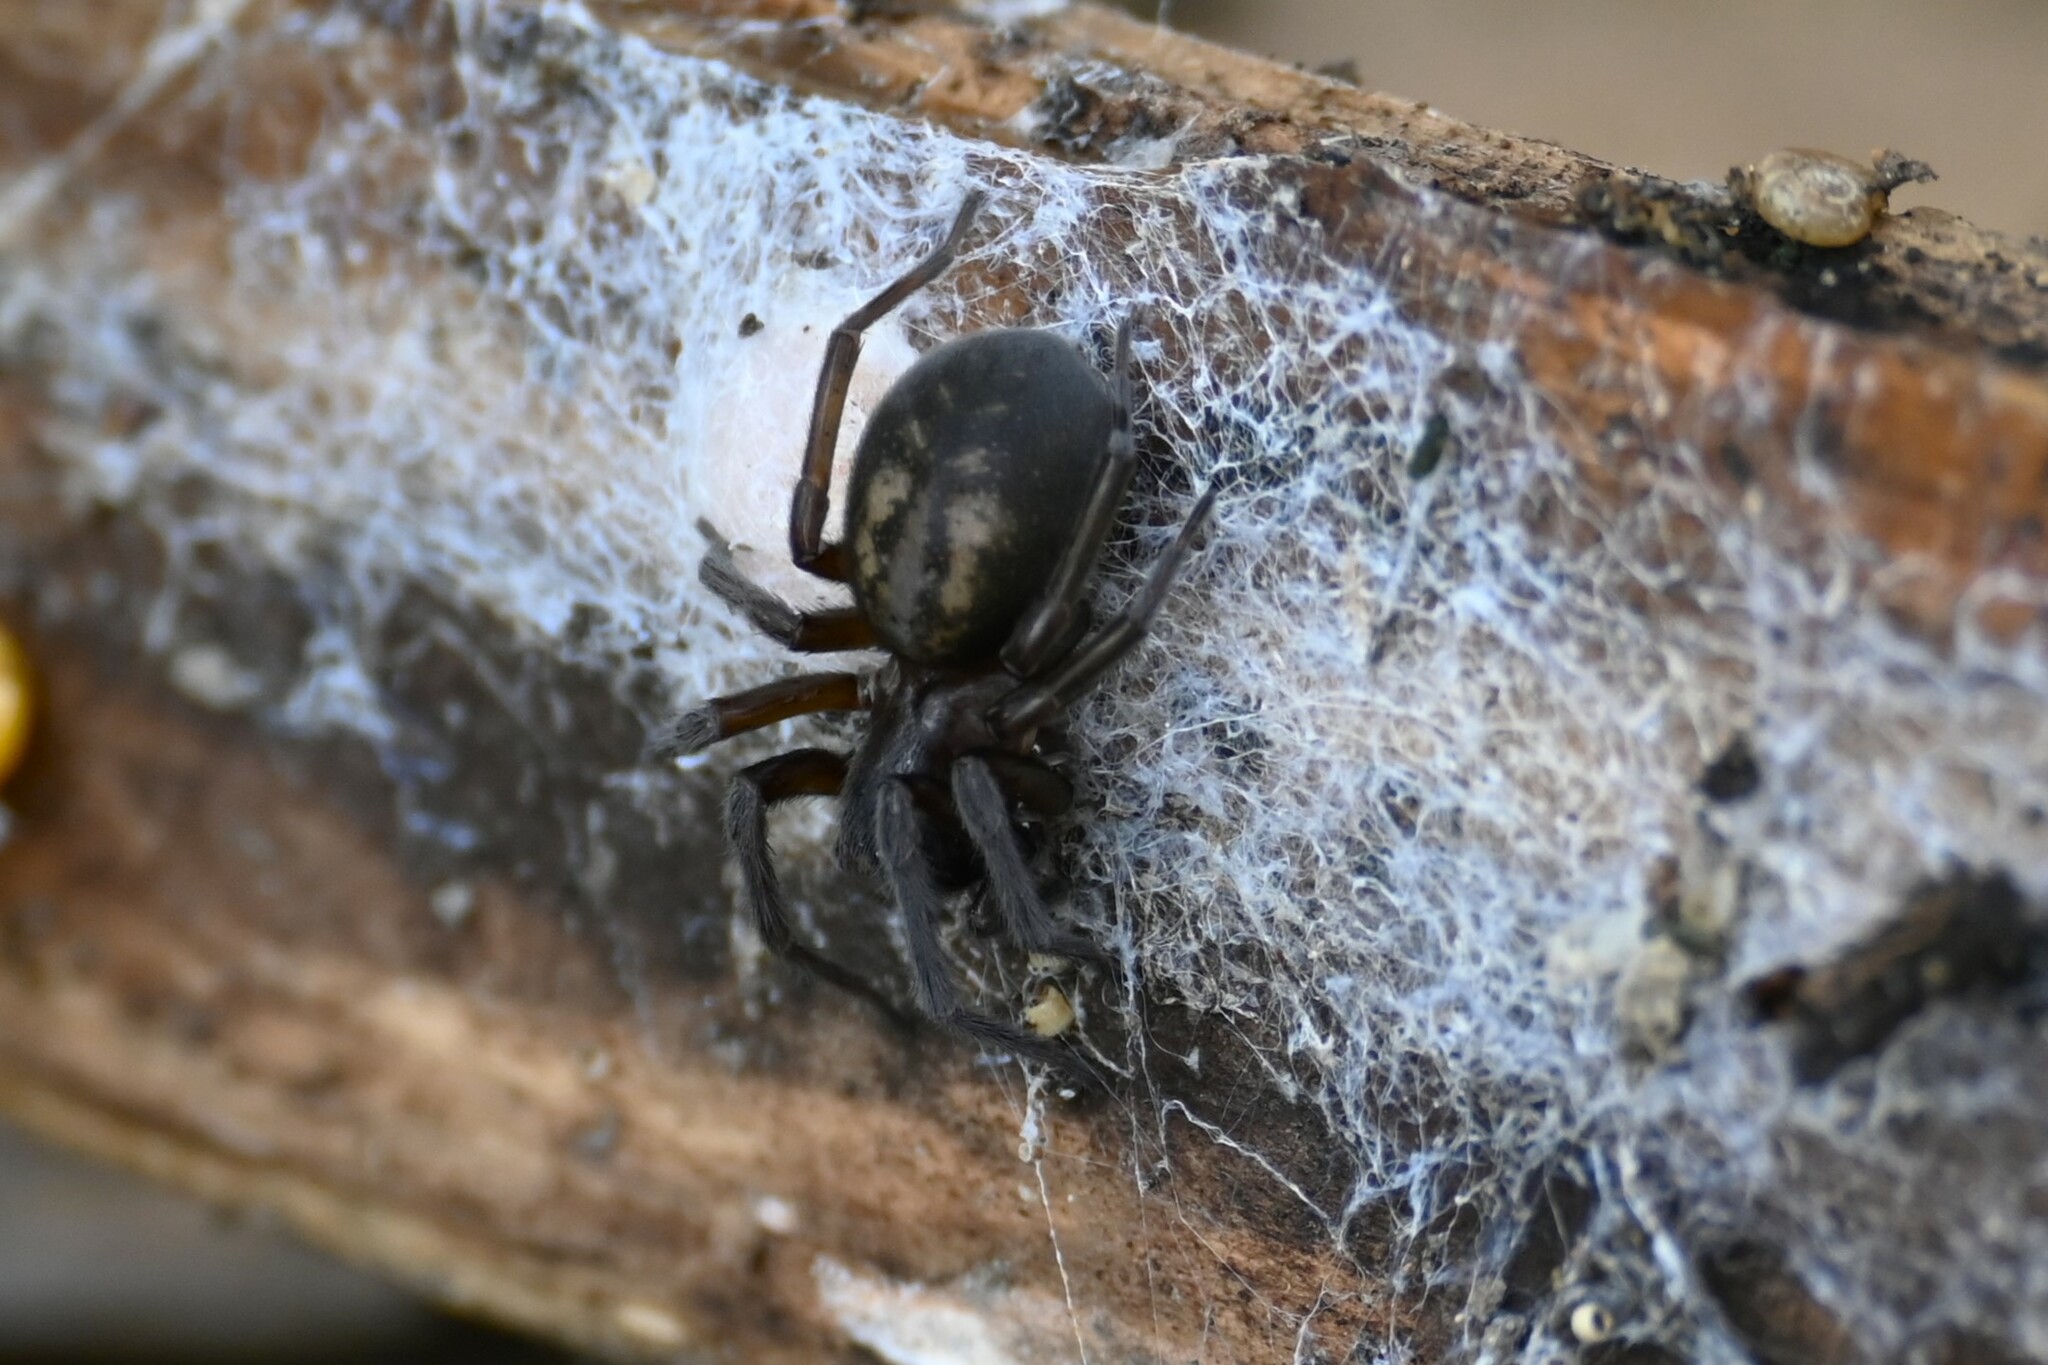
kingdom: Animalia
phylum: Arthropoda
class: Arachnida
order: Araneae
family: Amaurobiidae
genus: Amaurobius
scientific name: Amaurobius ferox
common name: Black laceweaver
